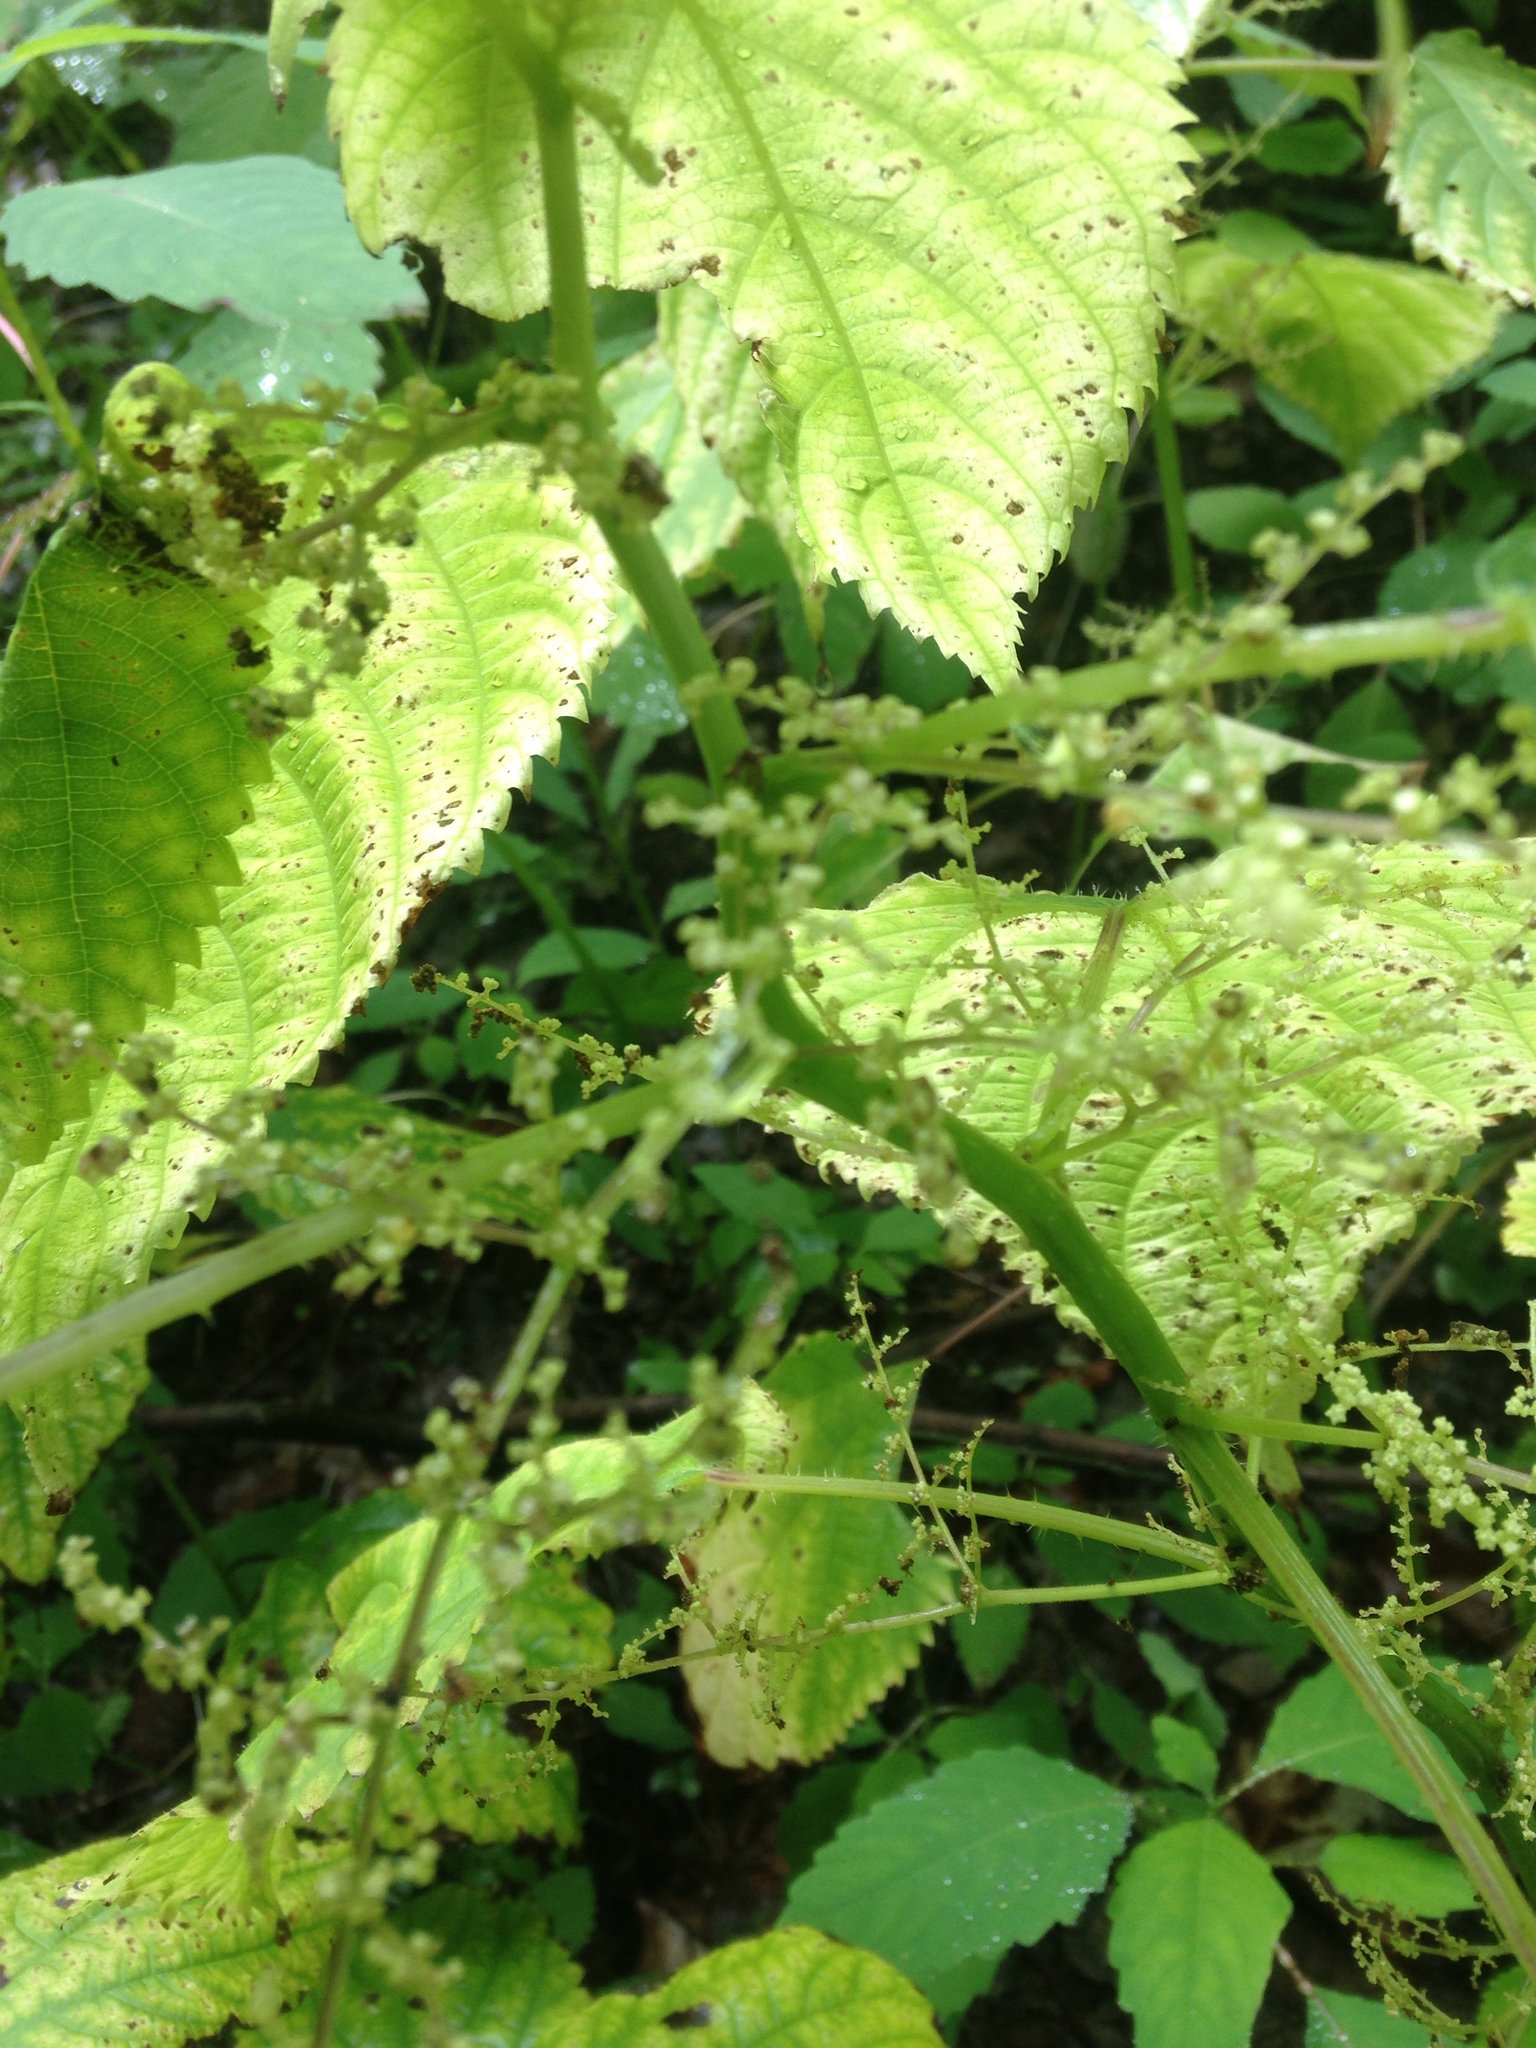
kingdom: Plantae
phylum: Tracheophyta
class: Magnoliopsida
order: Rosales
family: Urticaceae
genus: Laportea
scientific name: Laportea canadensis
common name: Canada nettle
